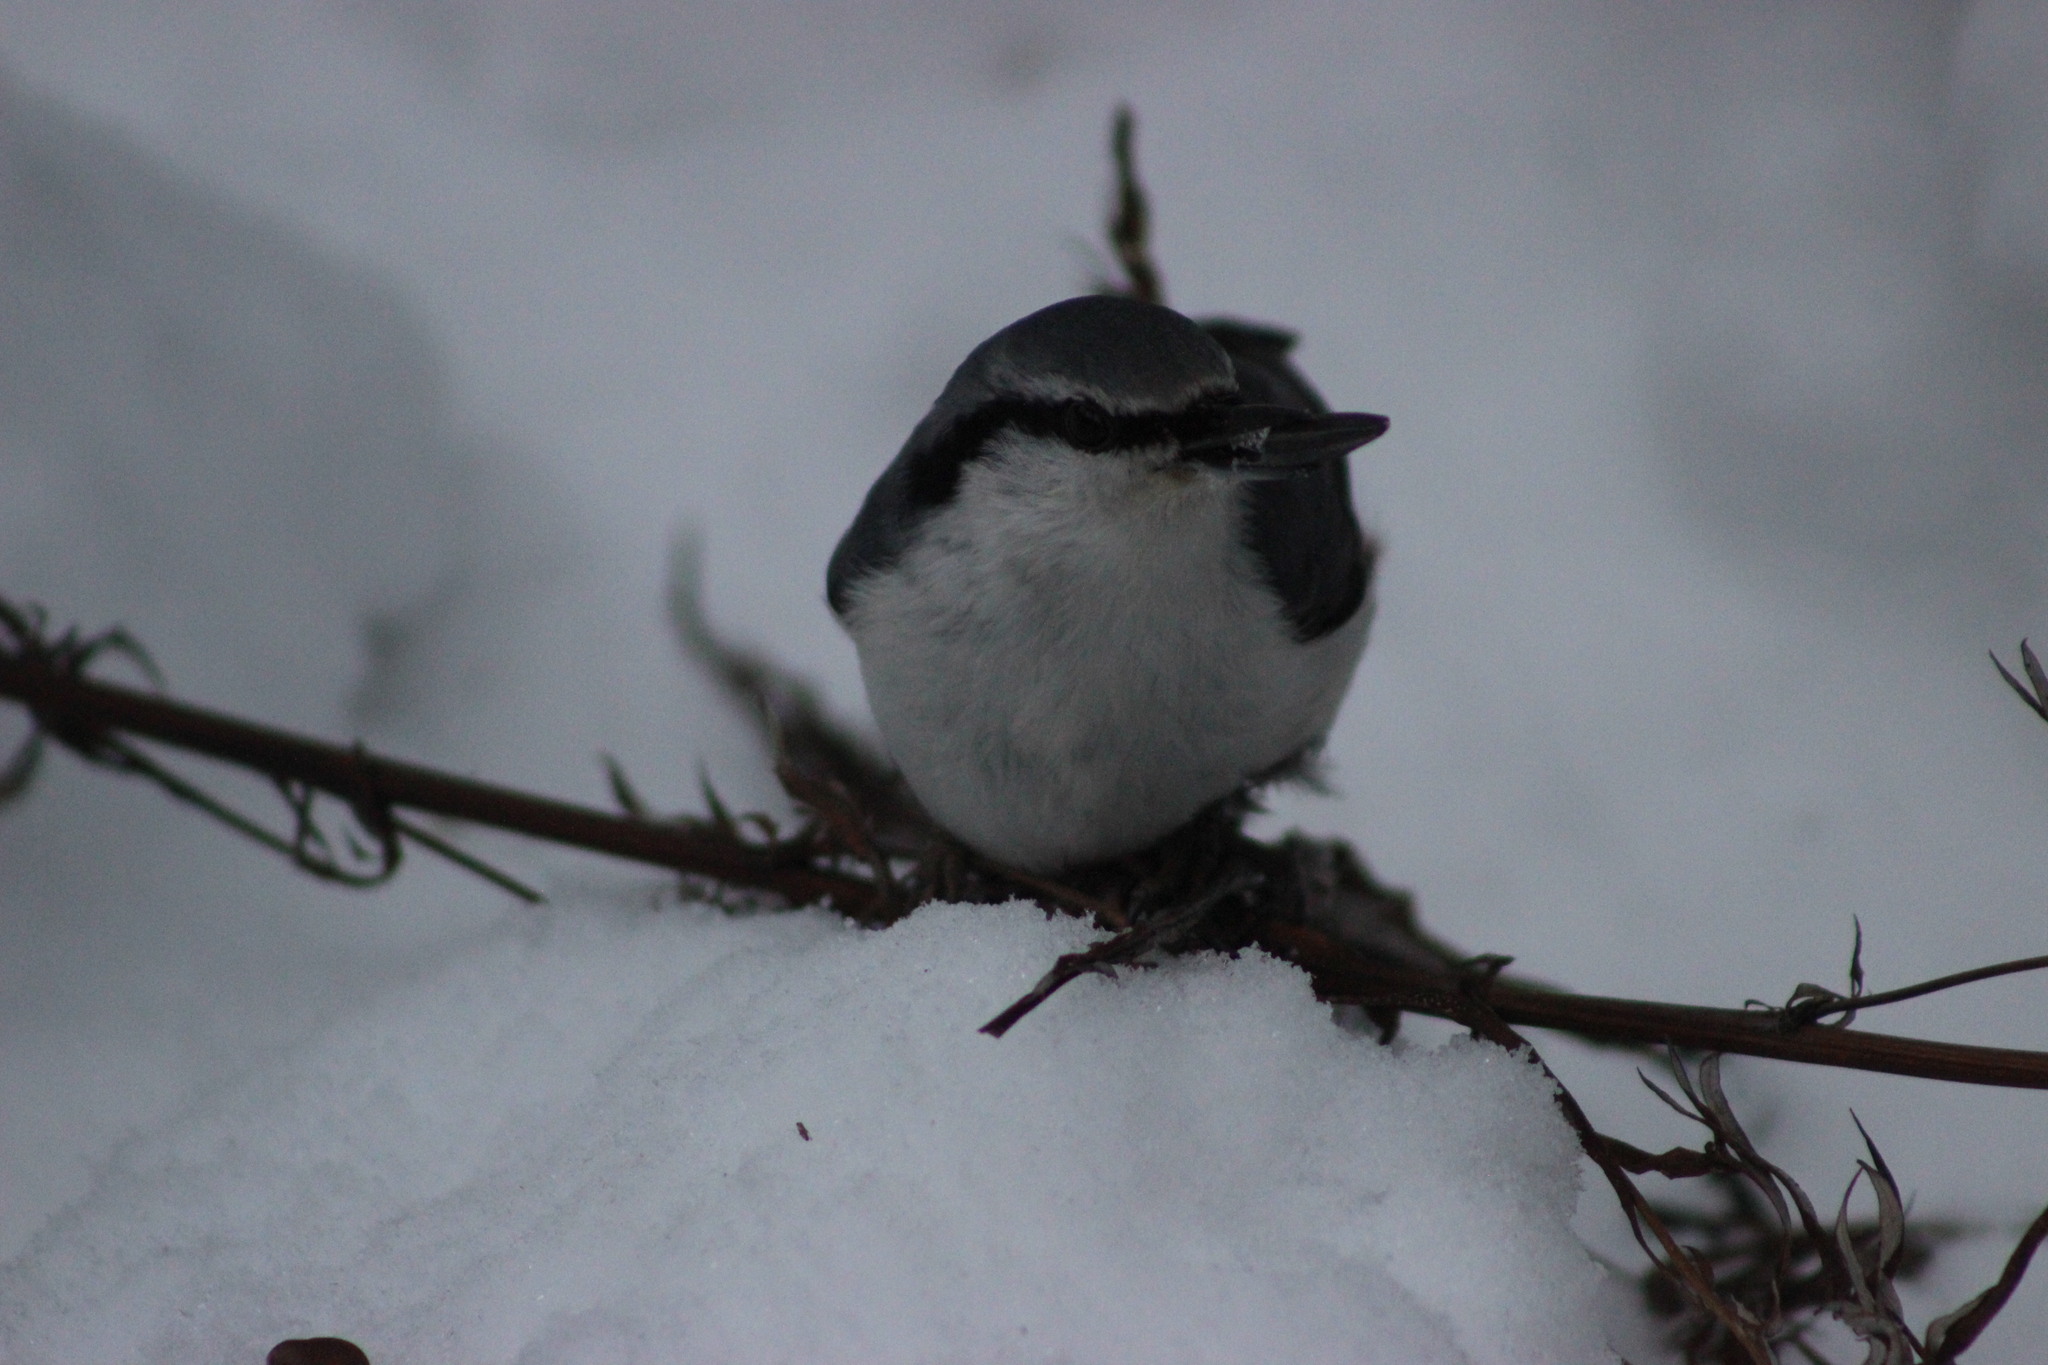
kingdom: Animalia
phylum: Chordata
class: Aves
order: Passeriformes
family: Sittidae
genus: Sitta
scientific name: Sitta europaea
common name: Eurasian nuthatch
